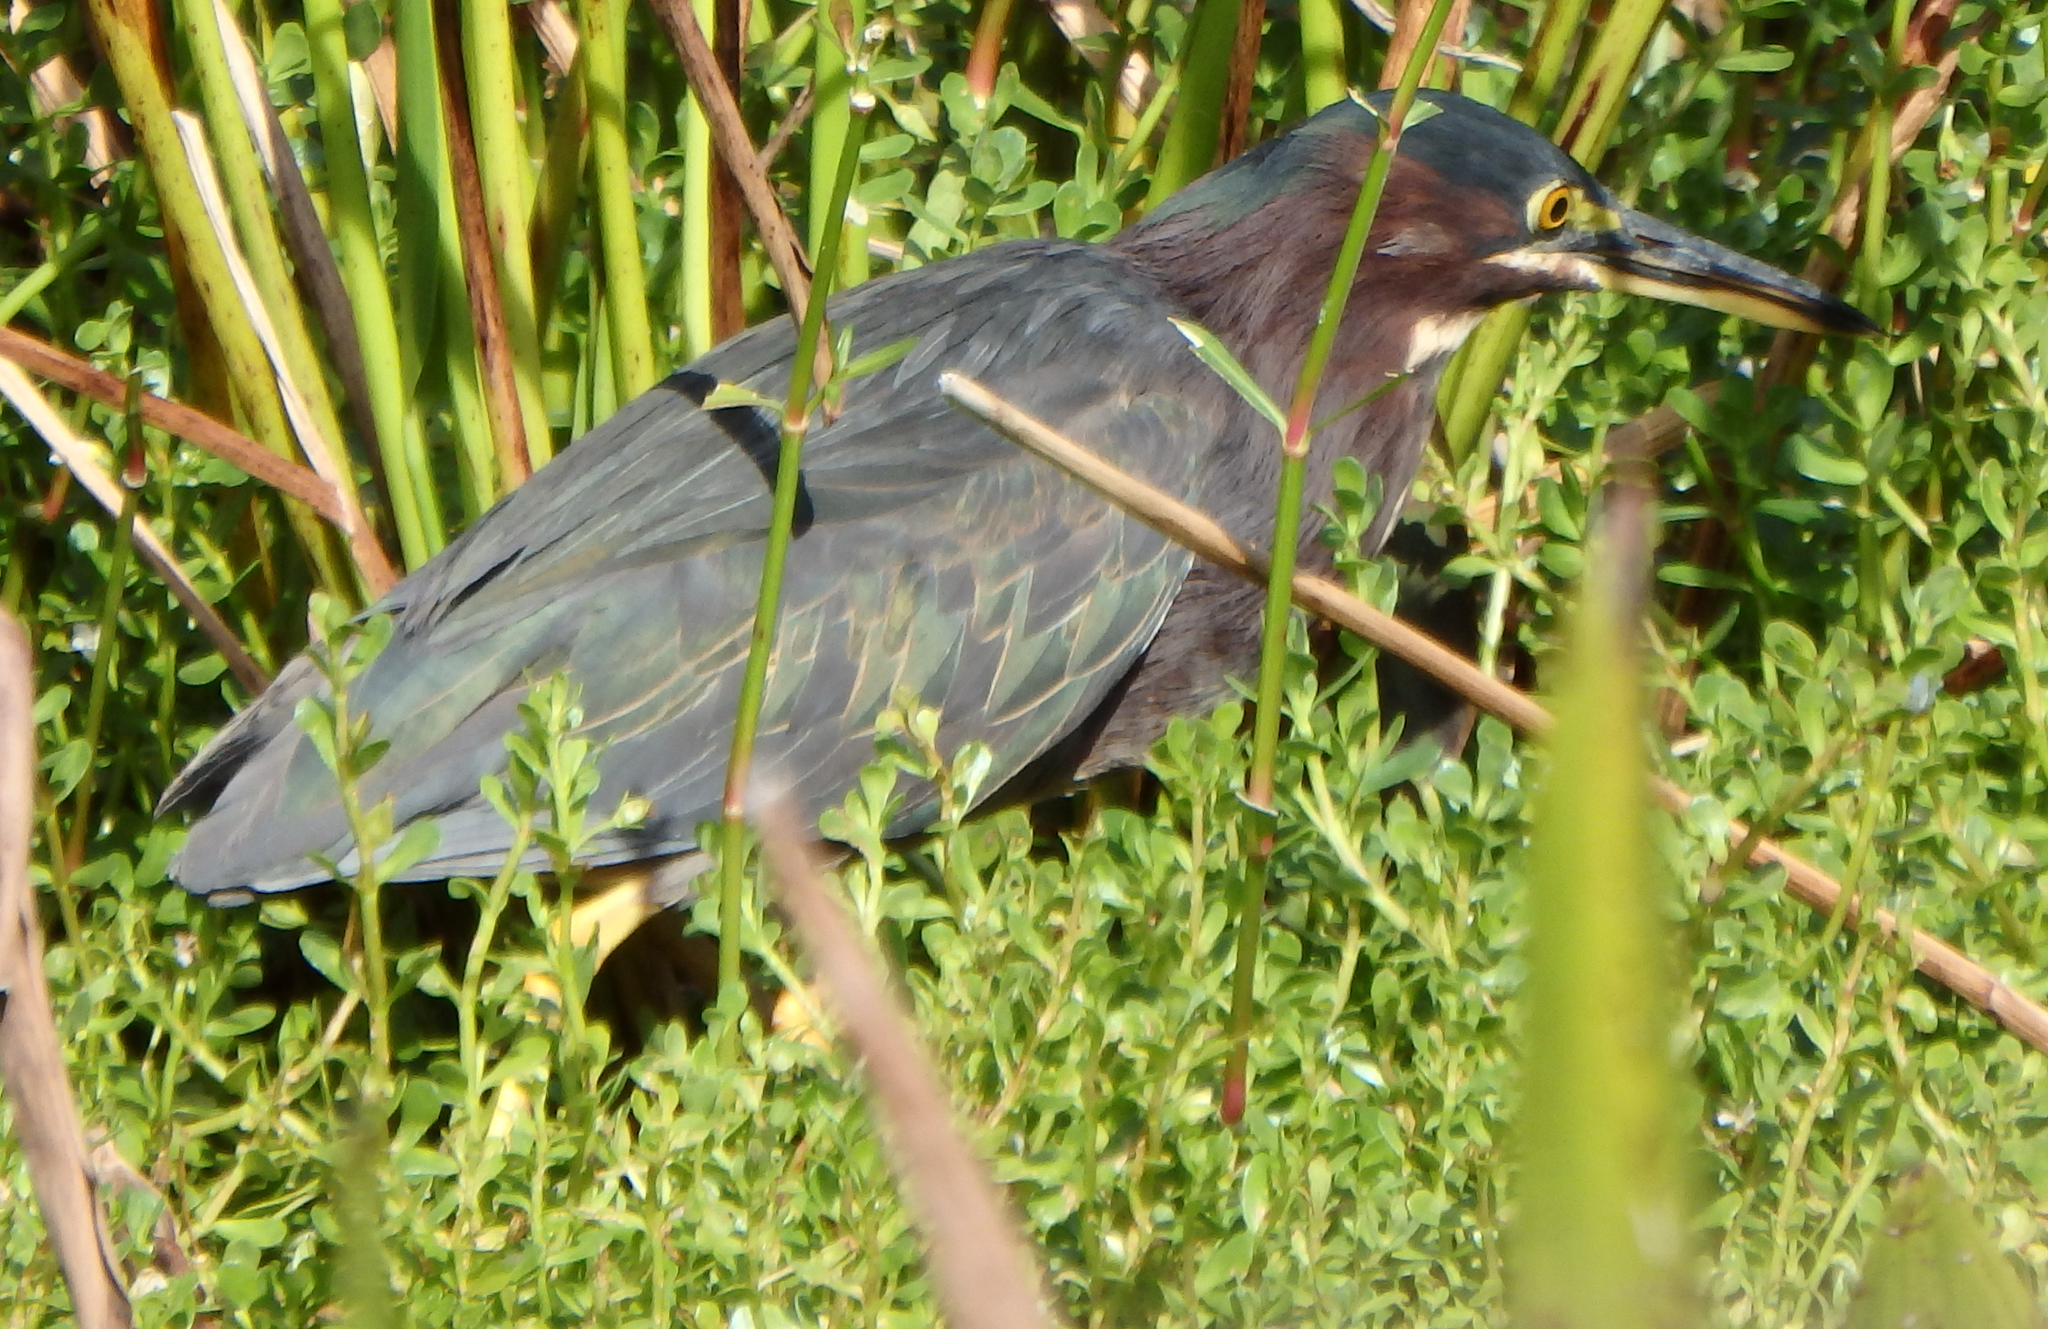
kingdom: Animalia
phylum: Chordata
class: Aves
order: Pelecaniformes
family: Ardeidae
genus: Butorides
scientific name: Butorides virescens
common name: Green heron
